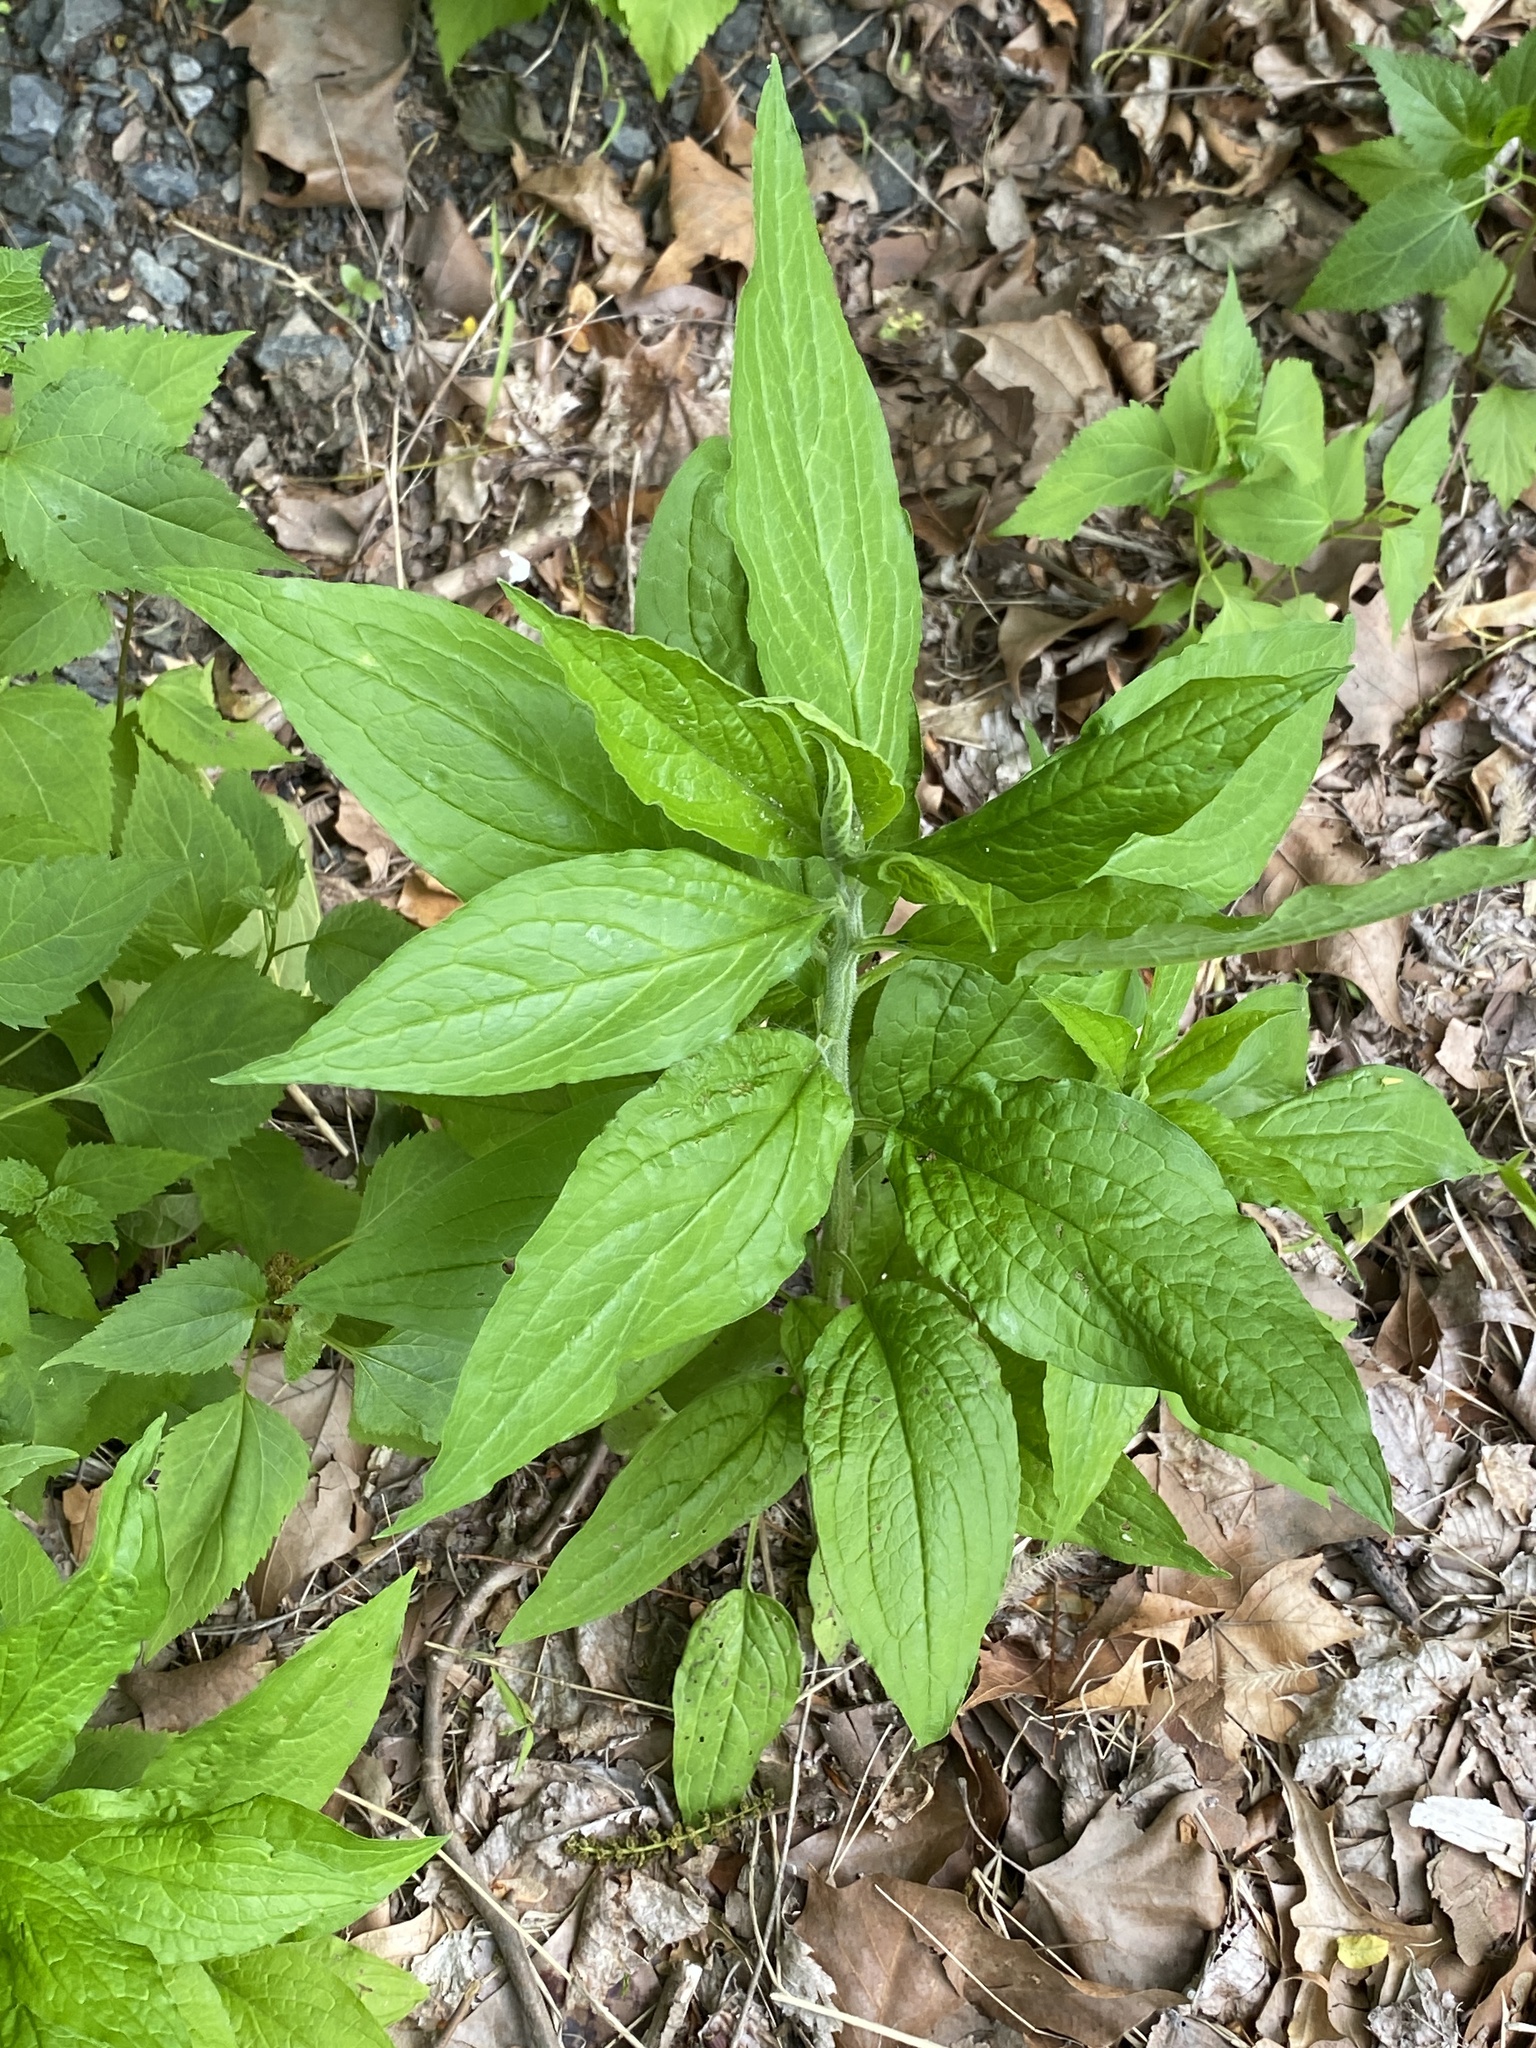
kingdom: Plantae
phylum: Tracheophyta
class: Magnoliopsida
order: Boraginales
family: Boraginaceae
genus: Hackelia
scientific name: Hackelia virginiana
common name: Beggar's-lice
